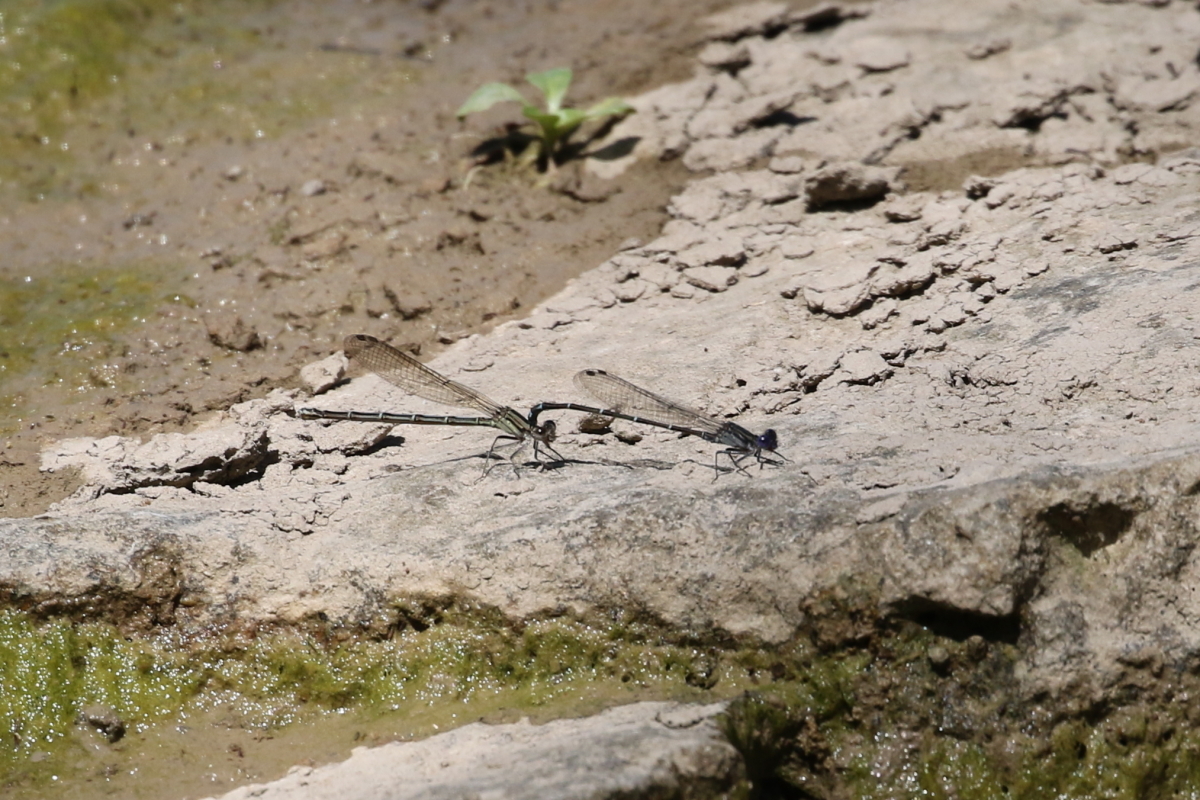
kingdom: Animalia
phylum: Arthropoda
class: Insecta
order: Odonata
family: Coenagrionidae
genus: Argia
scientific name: Argia translata
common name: Dusky dancer
